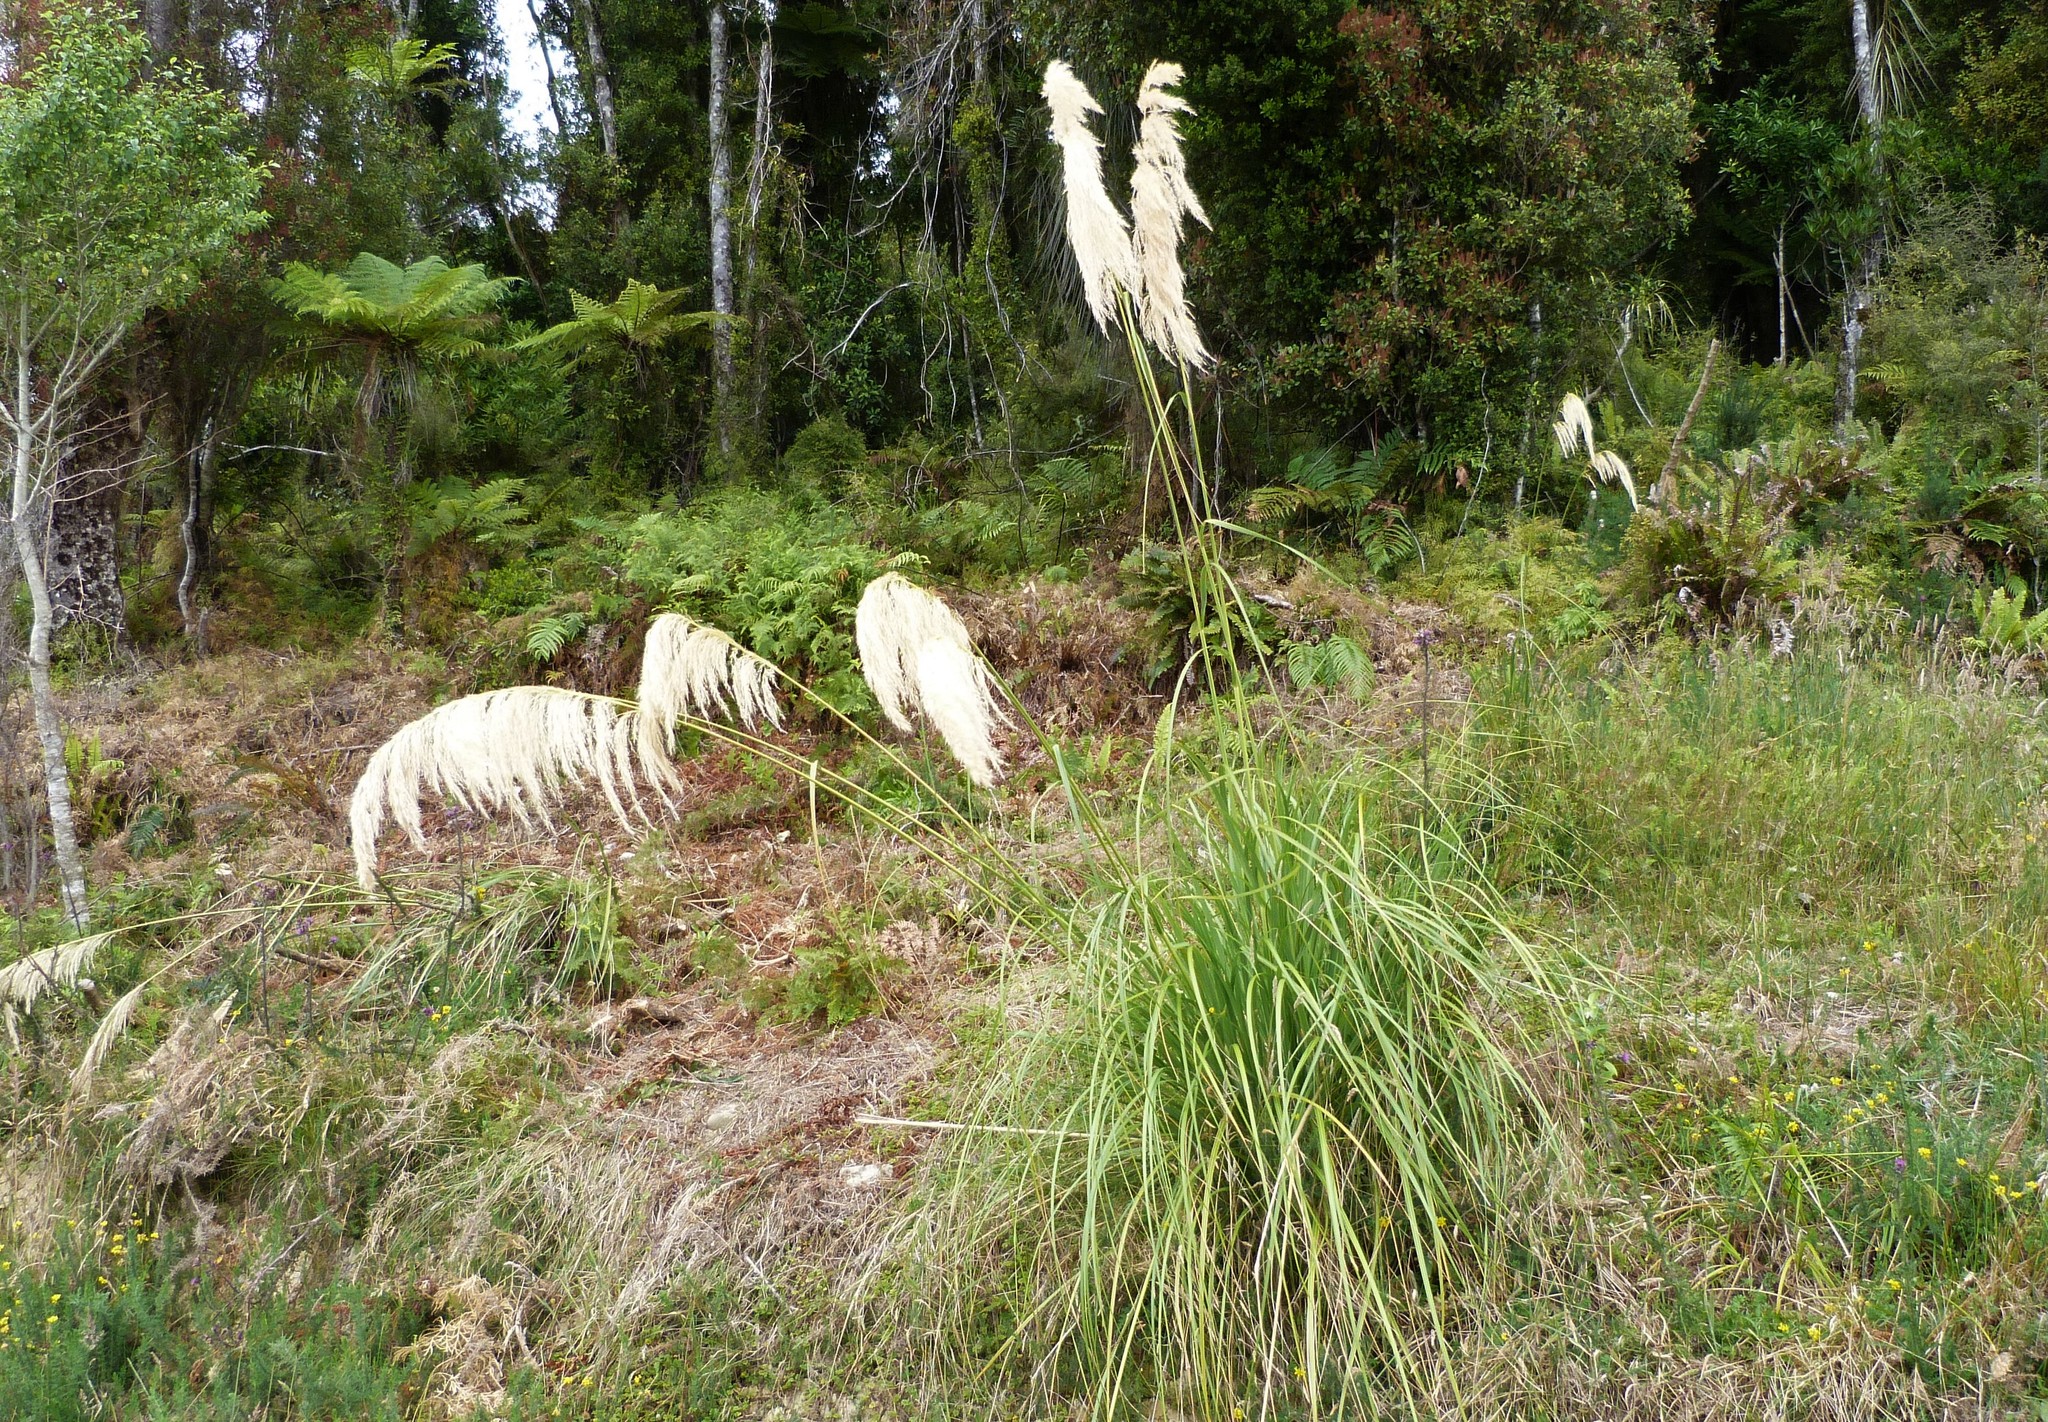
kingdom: Plantae
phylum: Tracheophyta
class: Liliopsida
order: Poales
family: Poaceae
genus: Austroderia
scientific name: Austroderia richardii
